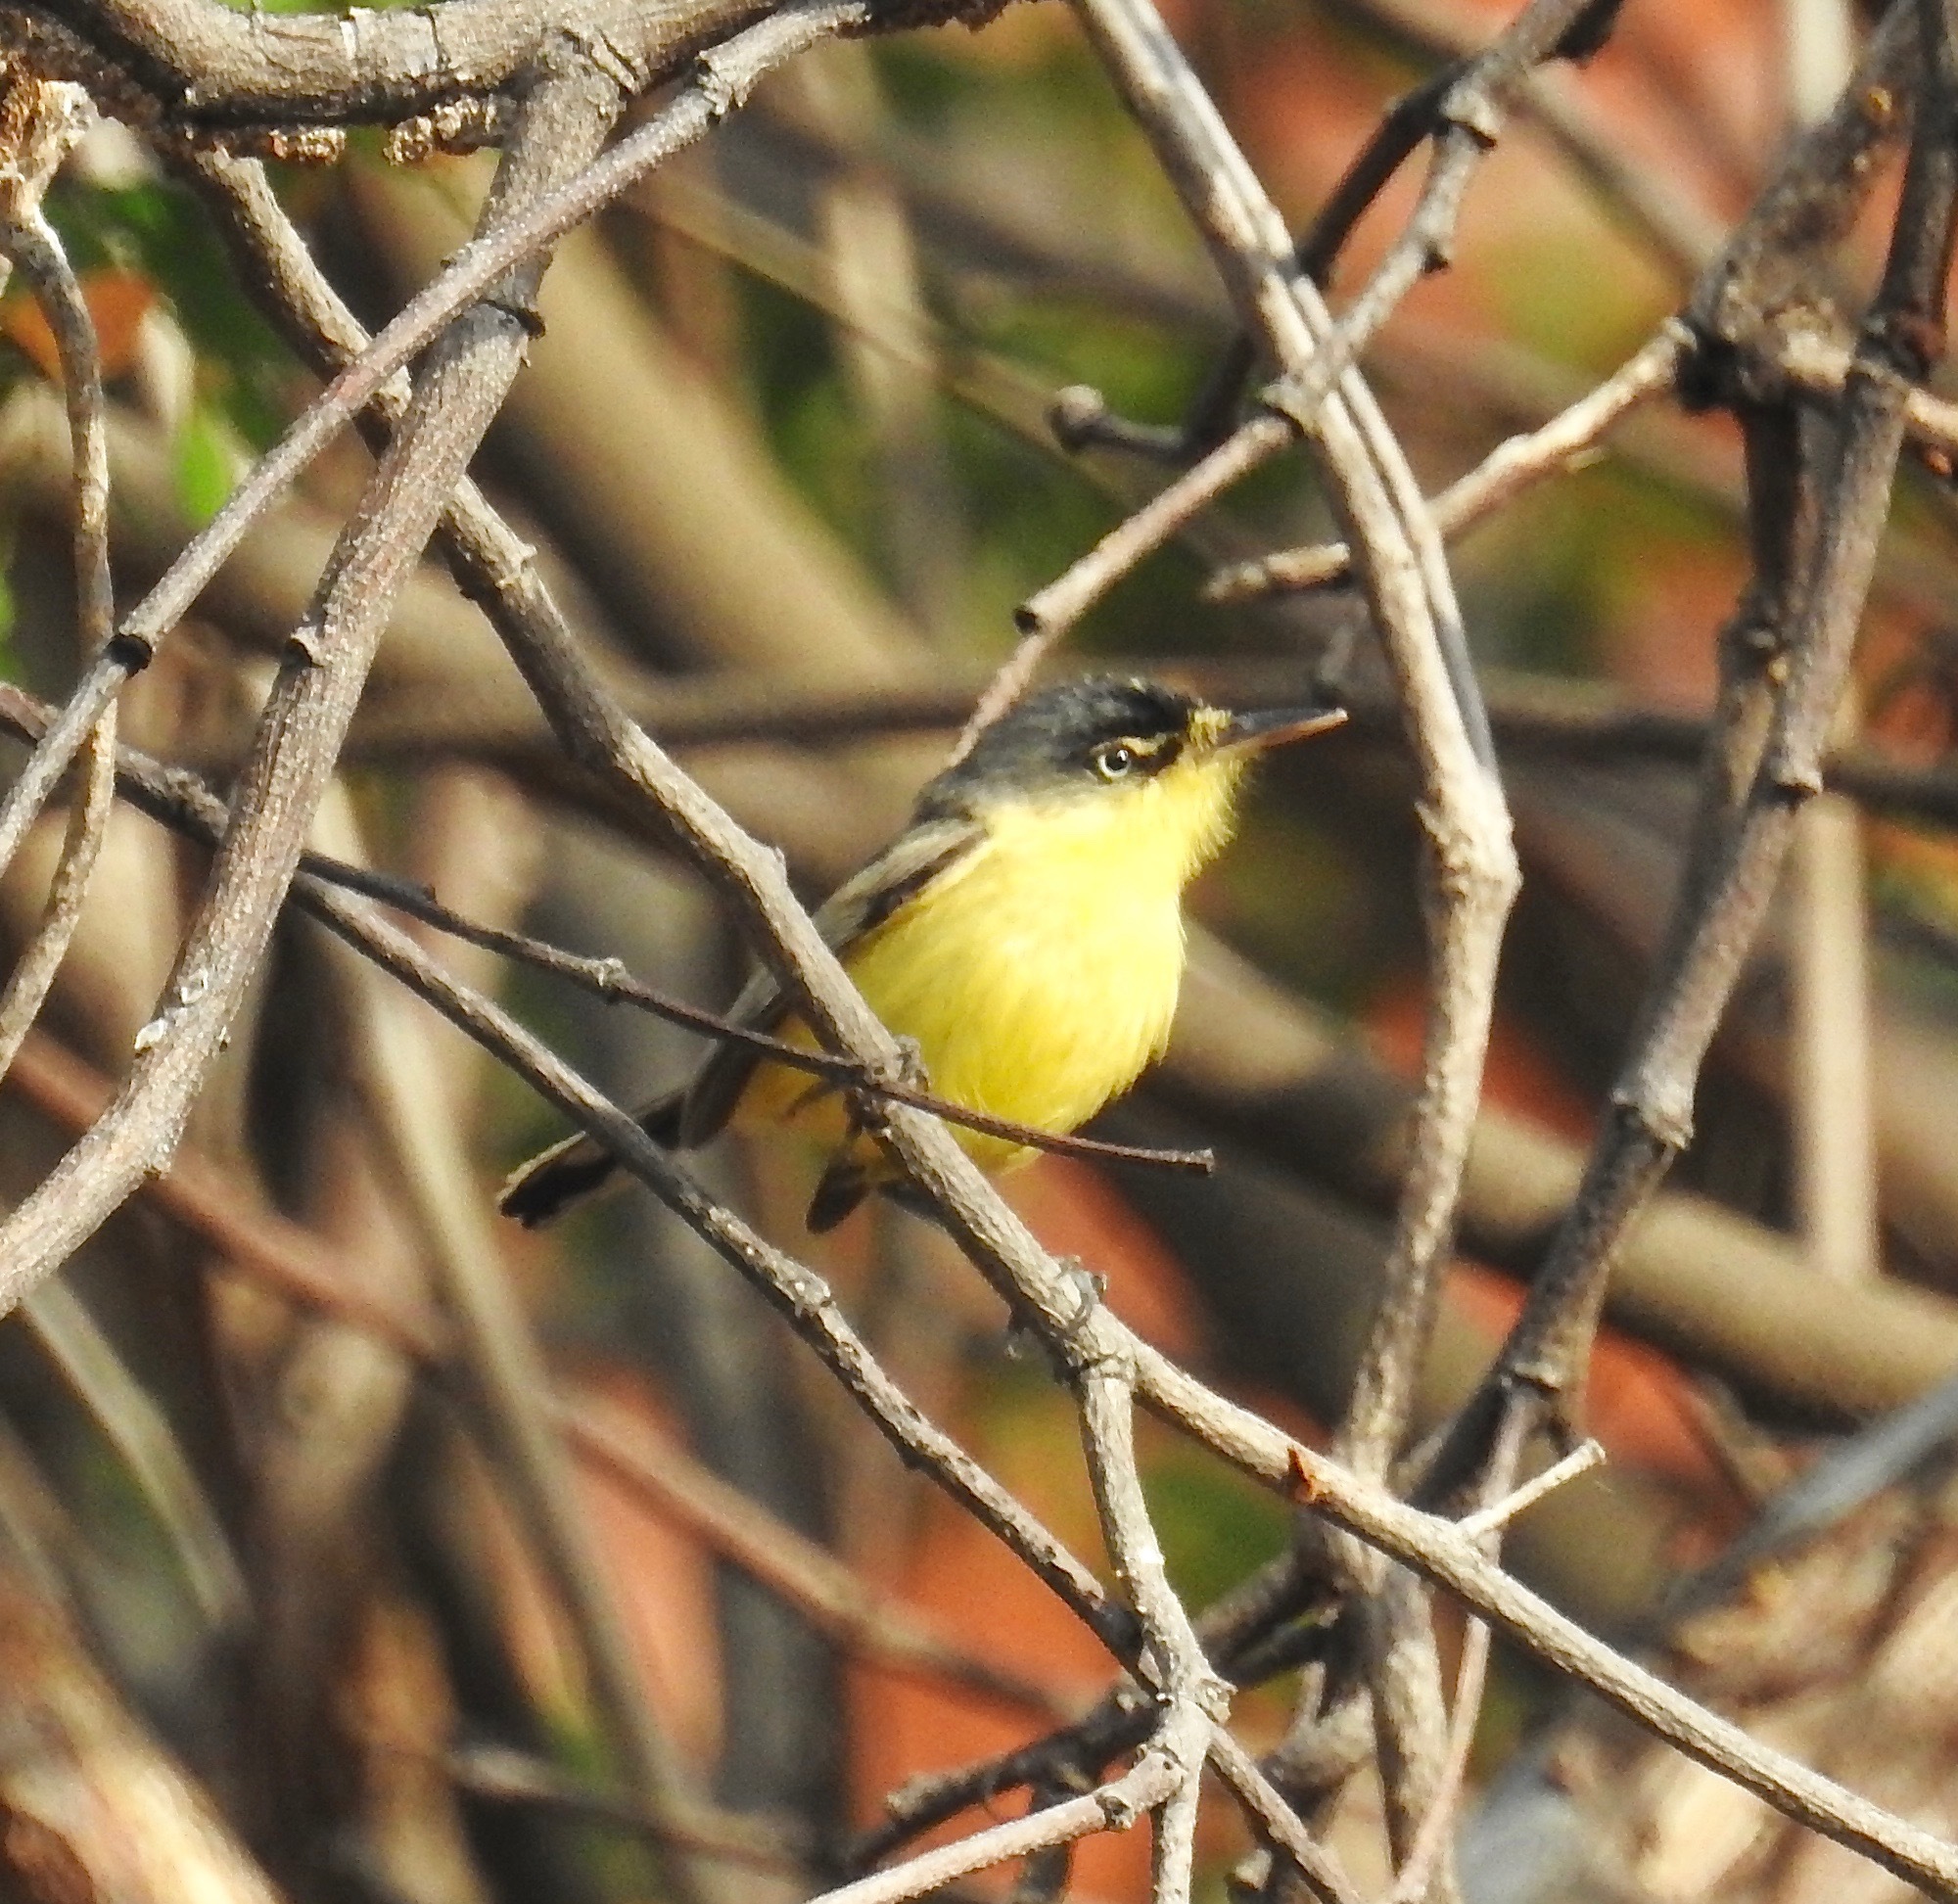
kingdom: Animalia
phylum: Chordata
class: Aves
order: Passeriformes
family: Tyrannidae
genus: Todirostrum
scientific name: Todirostrum cinereum
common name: Common tody-flycatcher
